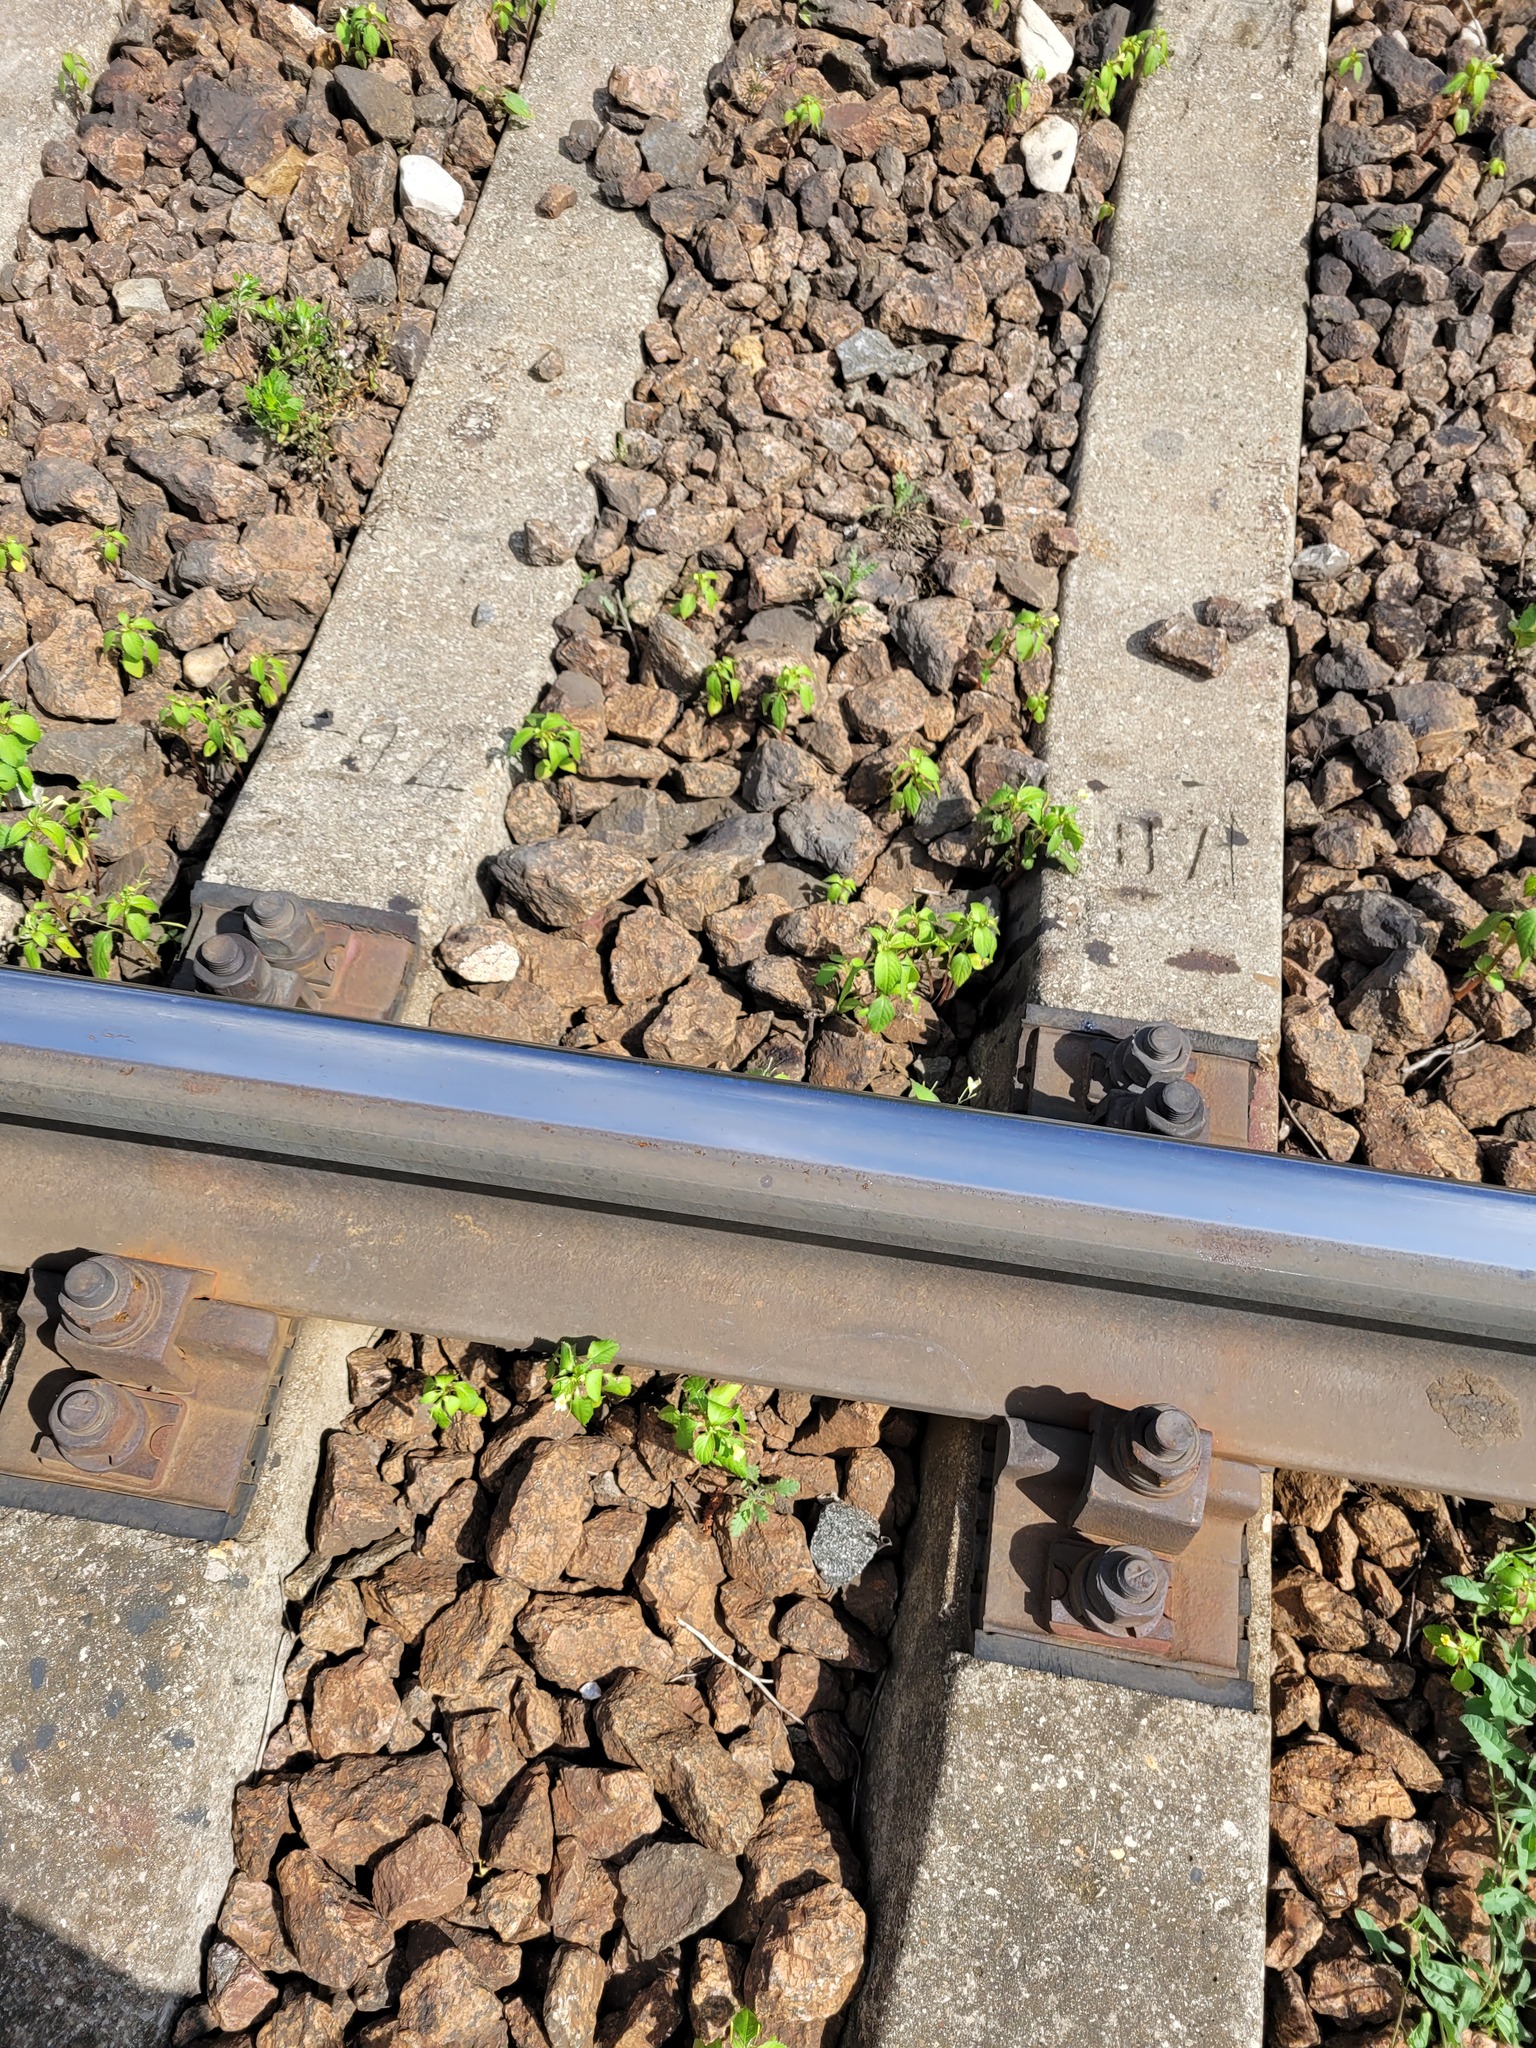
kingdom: Plantae
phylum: Tracheophyta
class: Magnoliopsida
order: Ericales
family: Balsaminaceae
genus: Impatiens
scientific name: Impatiens parviflora
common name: Small balsam
